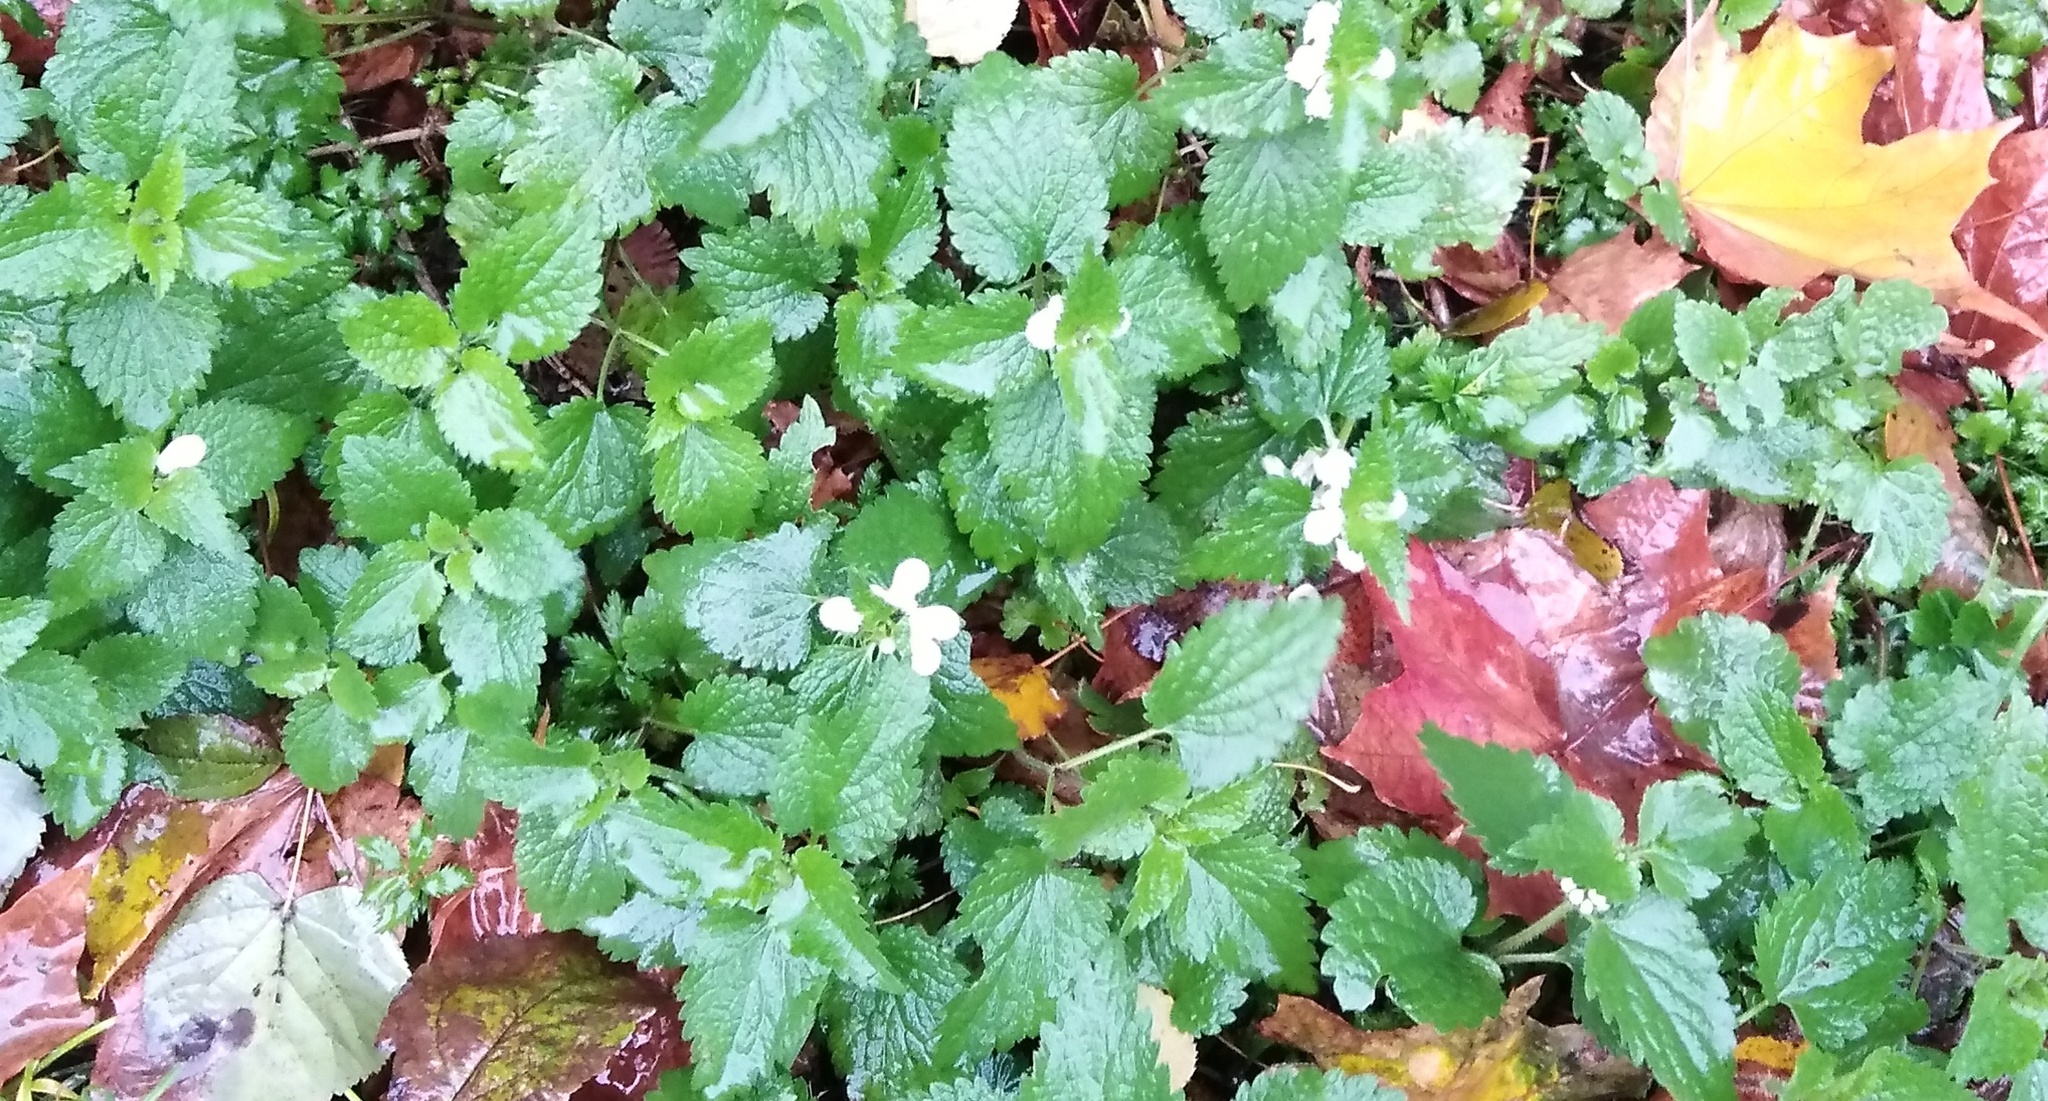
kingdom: Plantae
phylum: Tracheophyta
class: Magnoliopsida
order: Lamiales
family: Lamiaceae
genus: Lamium
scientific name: Lamium album
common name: White dead-nettle
